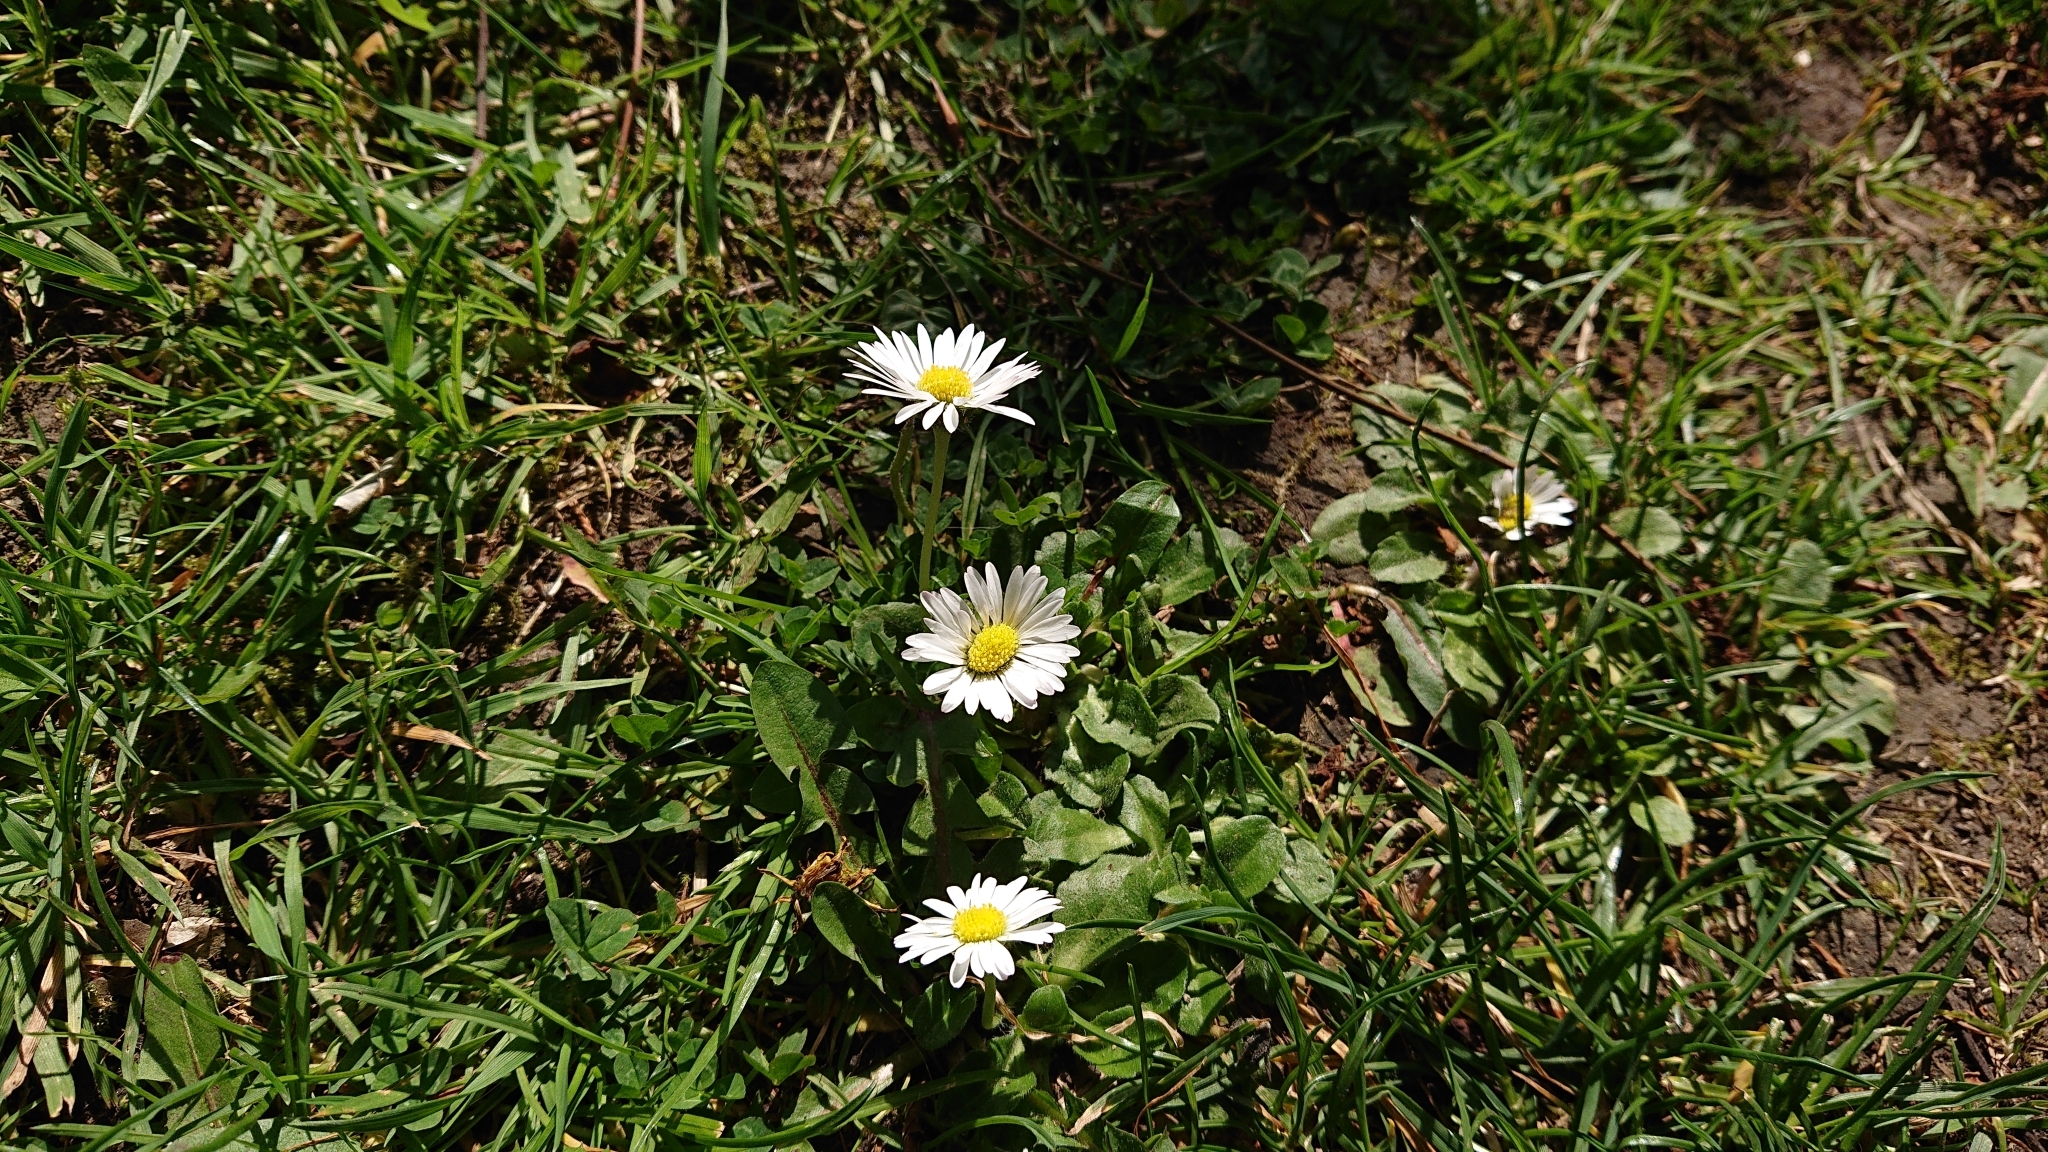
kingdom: Plantae
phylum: Tracheophyta
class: Magnoliopsida
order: Asterales
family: Asteraceae
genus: Bellis
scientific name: Bellis perennis
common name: Lawndaisy
